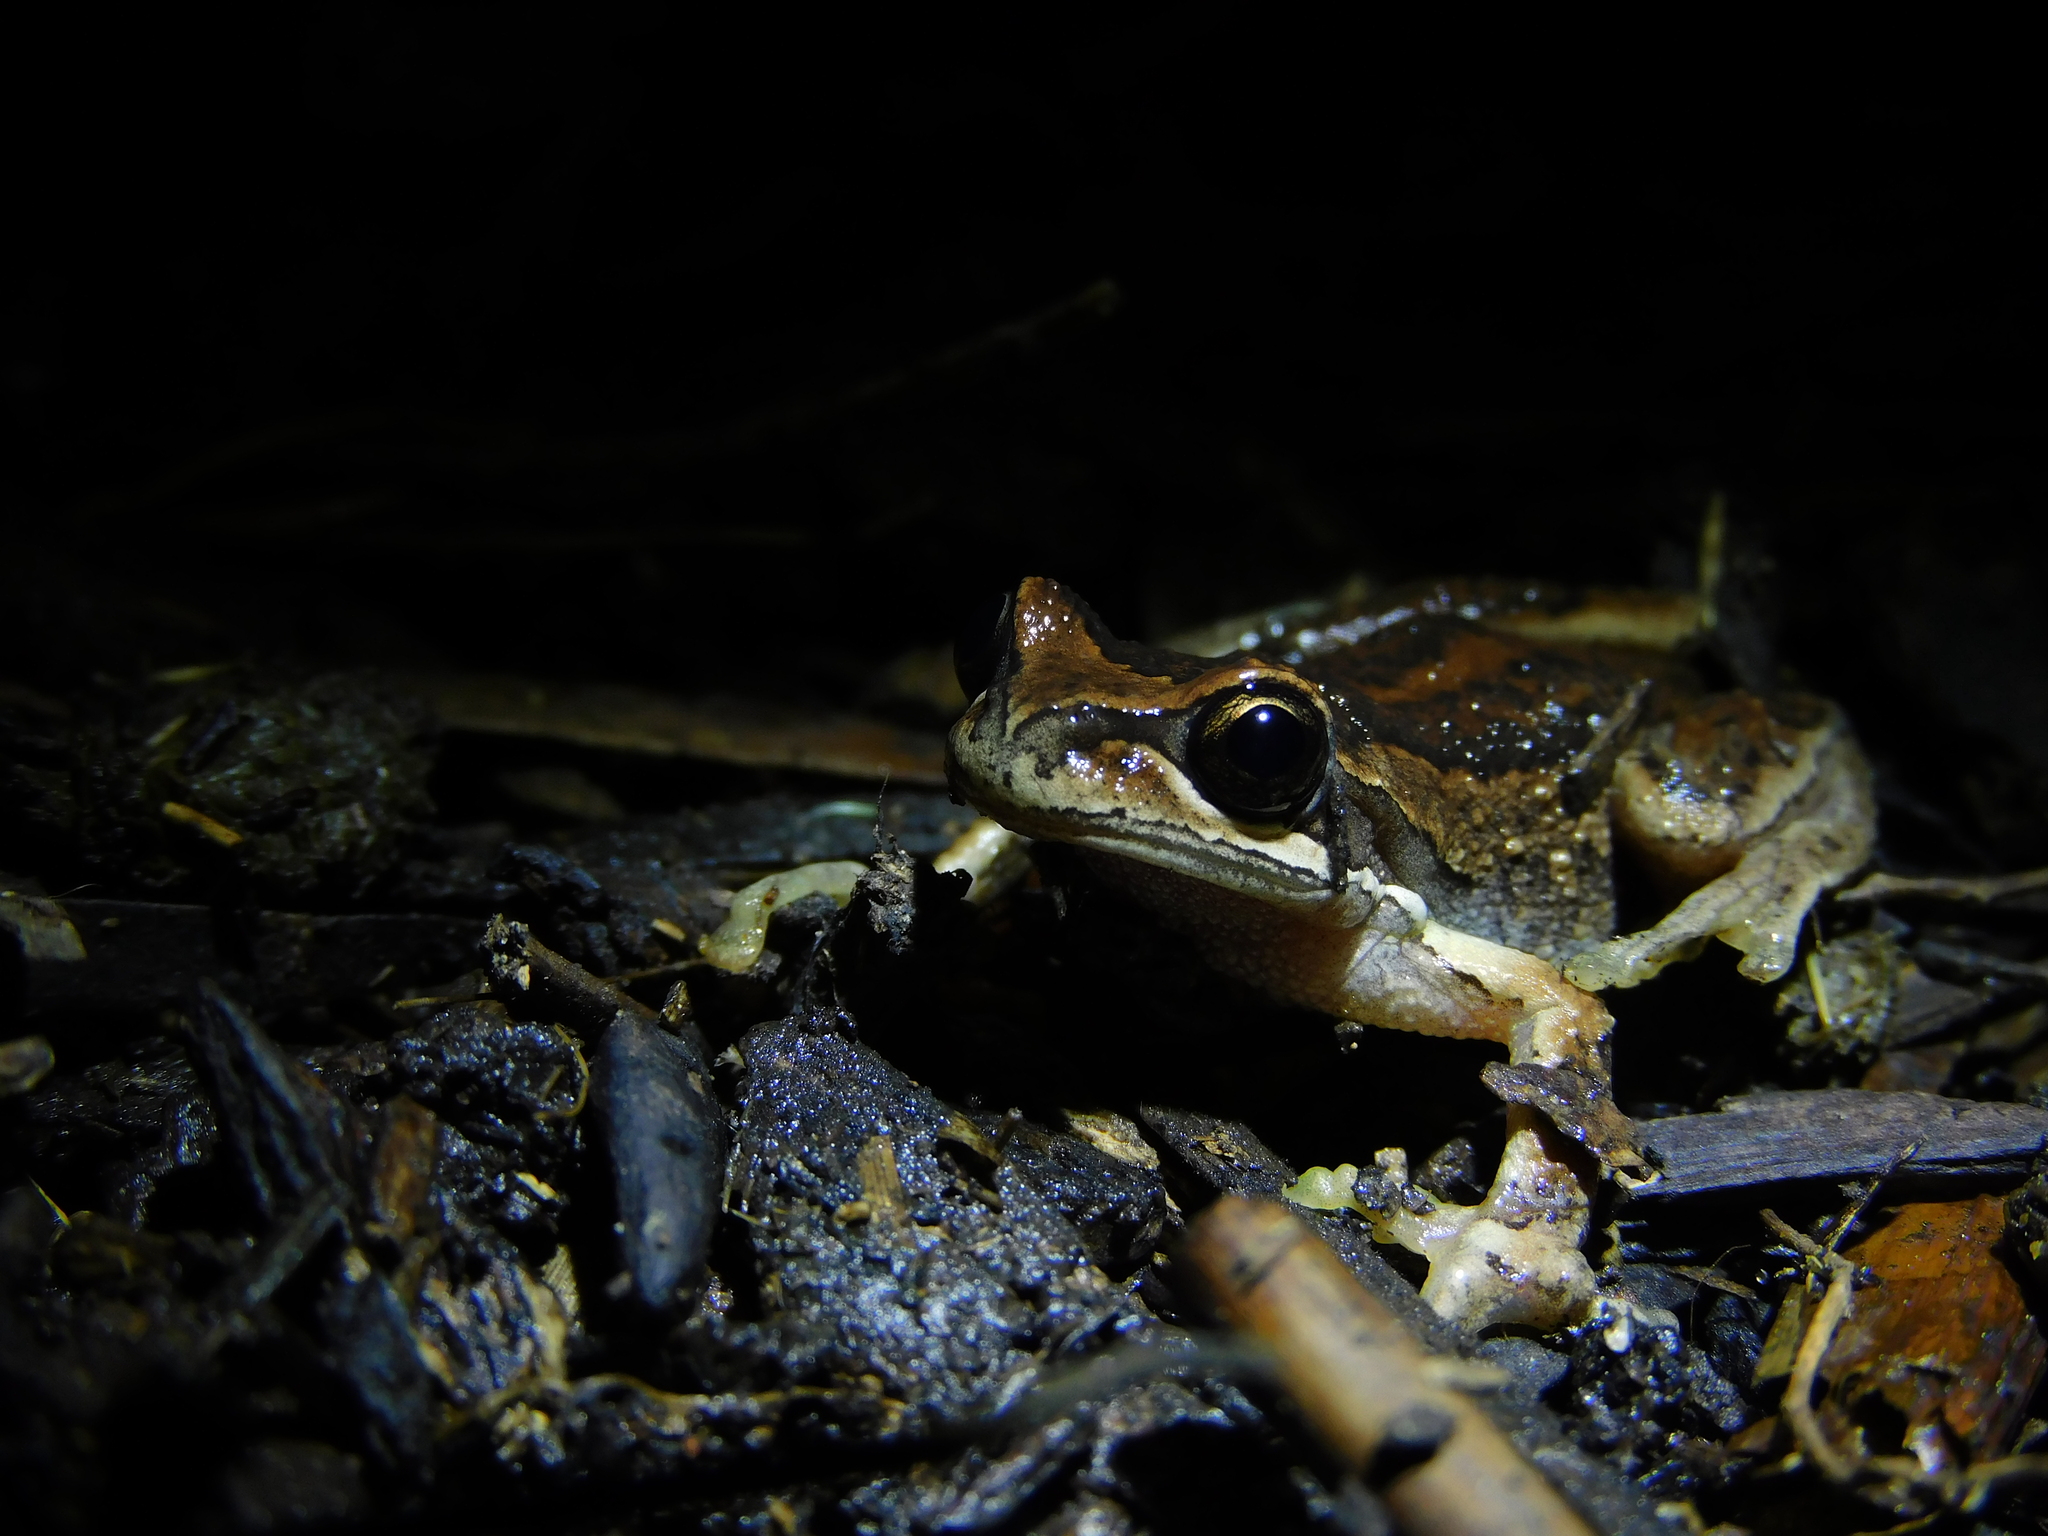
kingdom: Animalia
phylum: Chordata
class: Amphibia
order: Anura
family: Pelodryadidae
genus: Litoria
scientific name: Litoria ewingii
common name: Southern brown tree frog
